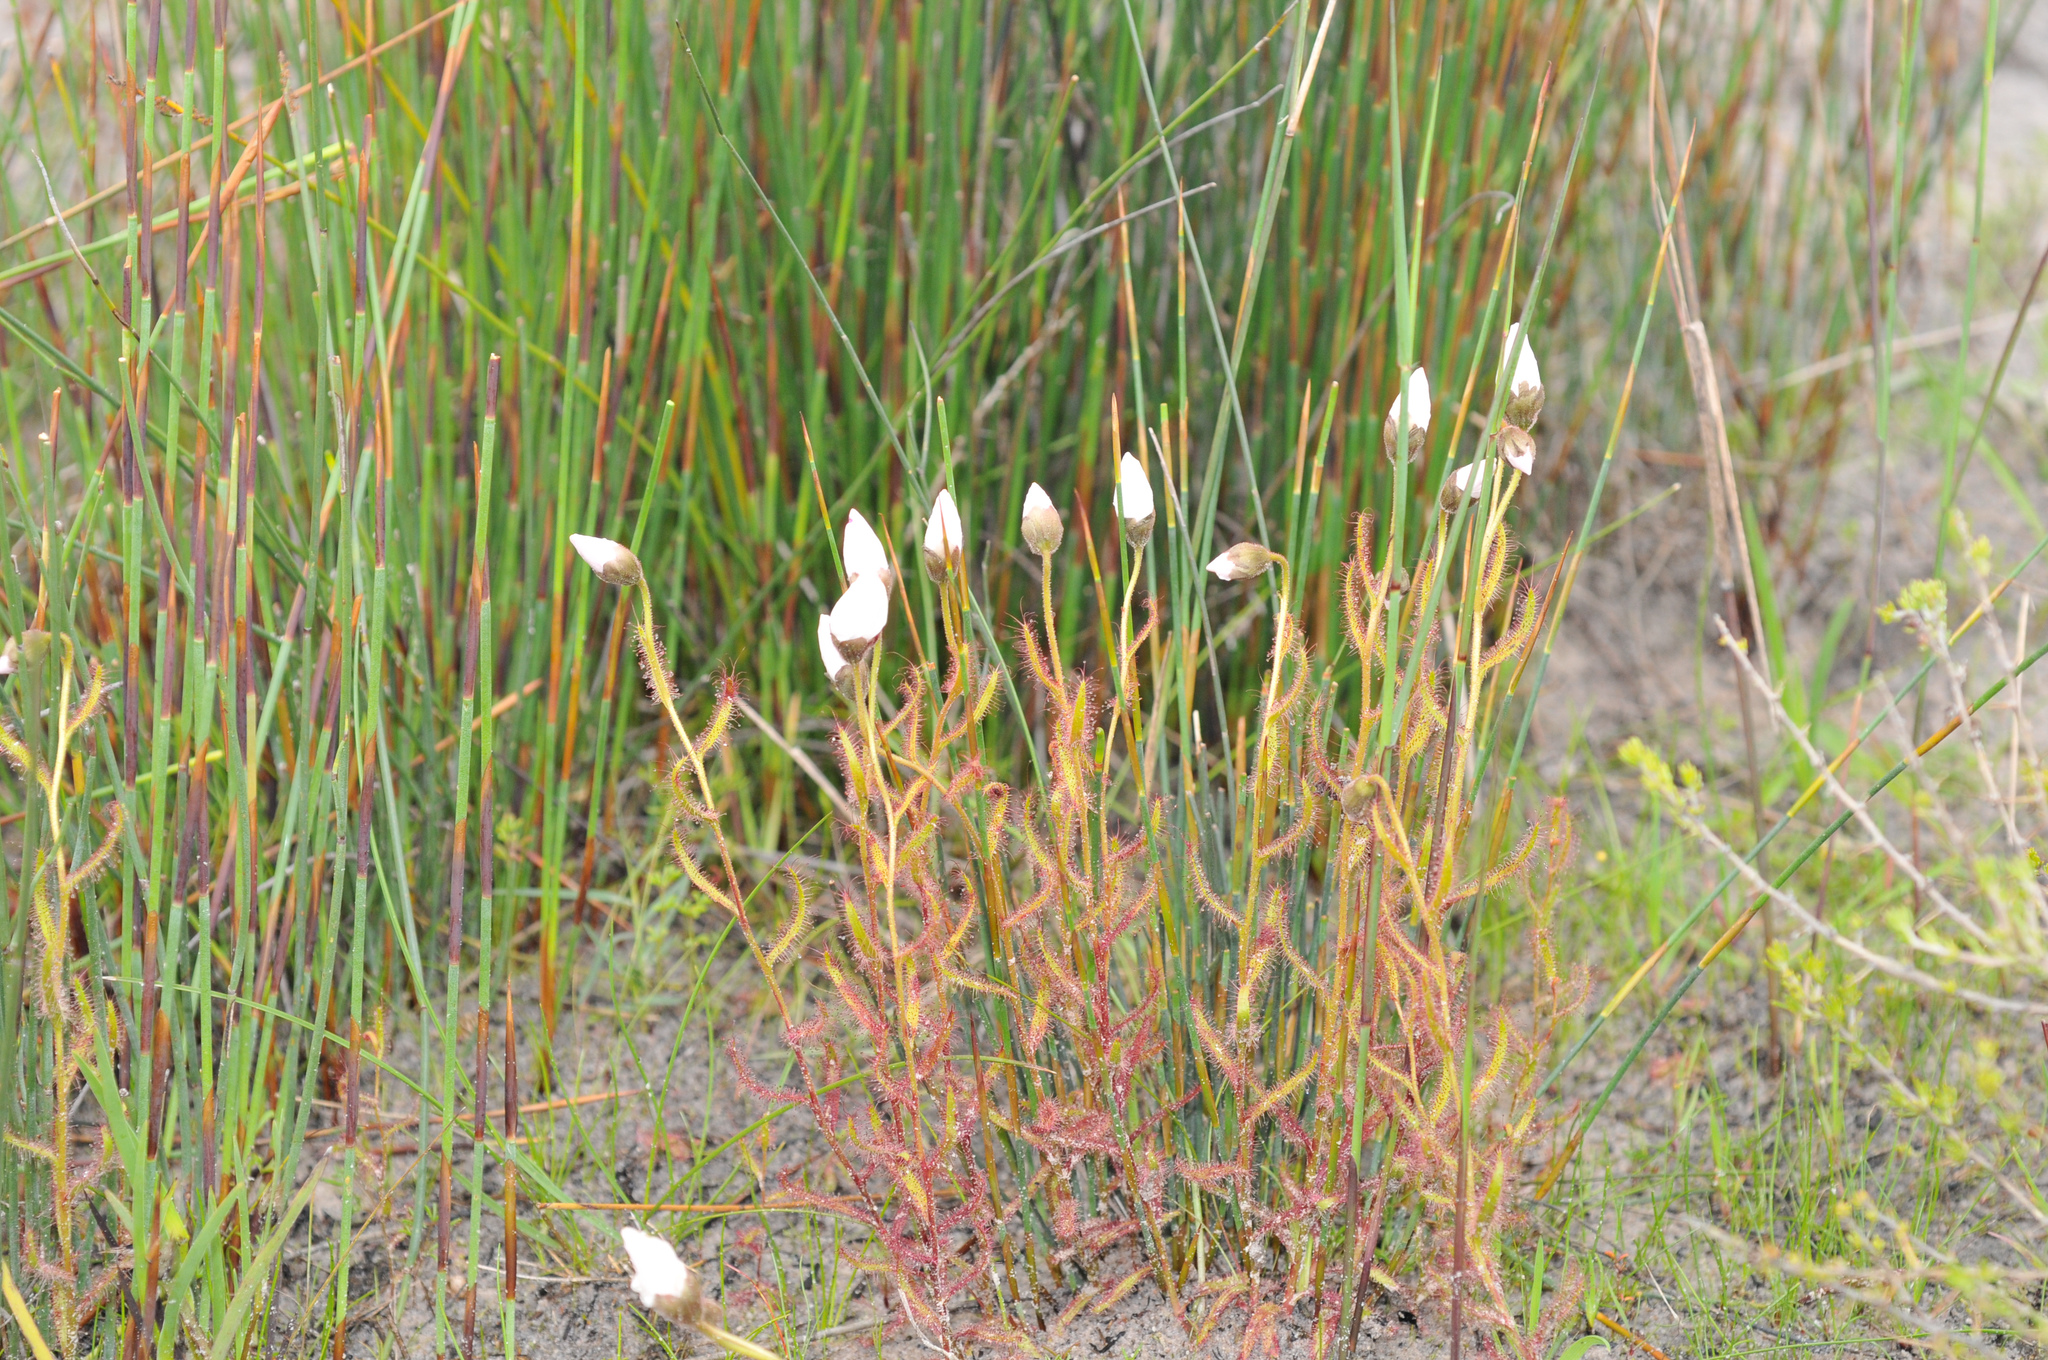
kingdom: Plantae
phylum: Tracheophyta
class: Magnoliopsida
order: Caryophyllales
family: Droseraceae
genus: Drosera
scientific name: Drosera cistiflora
